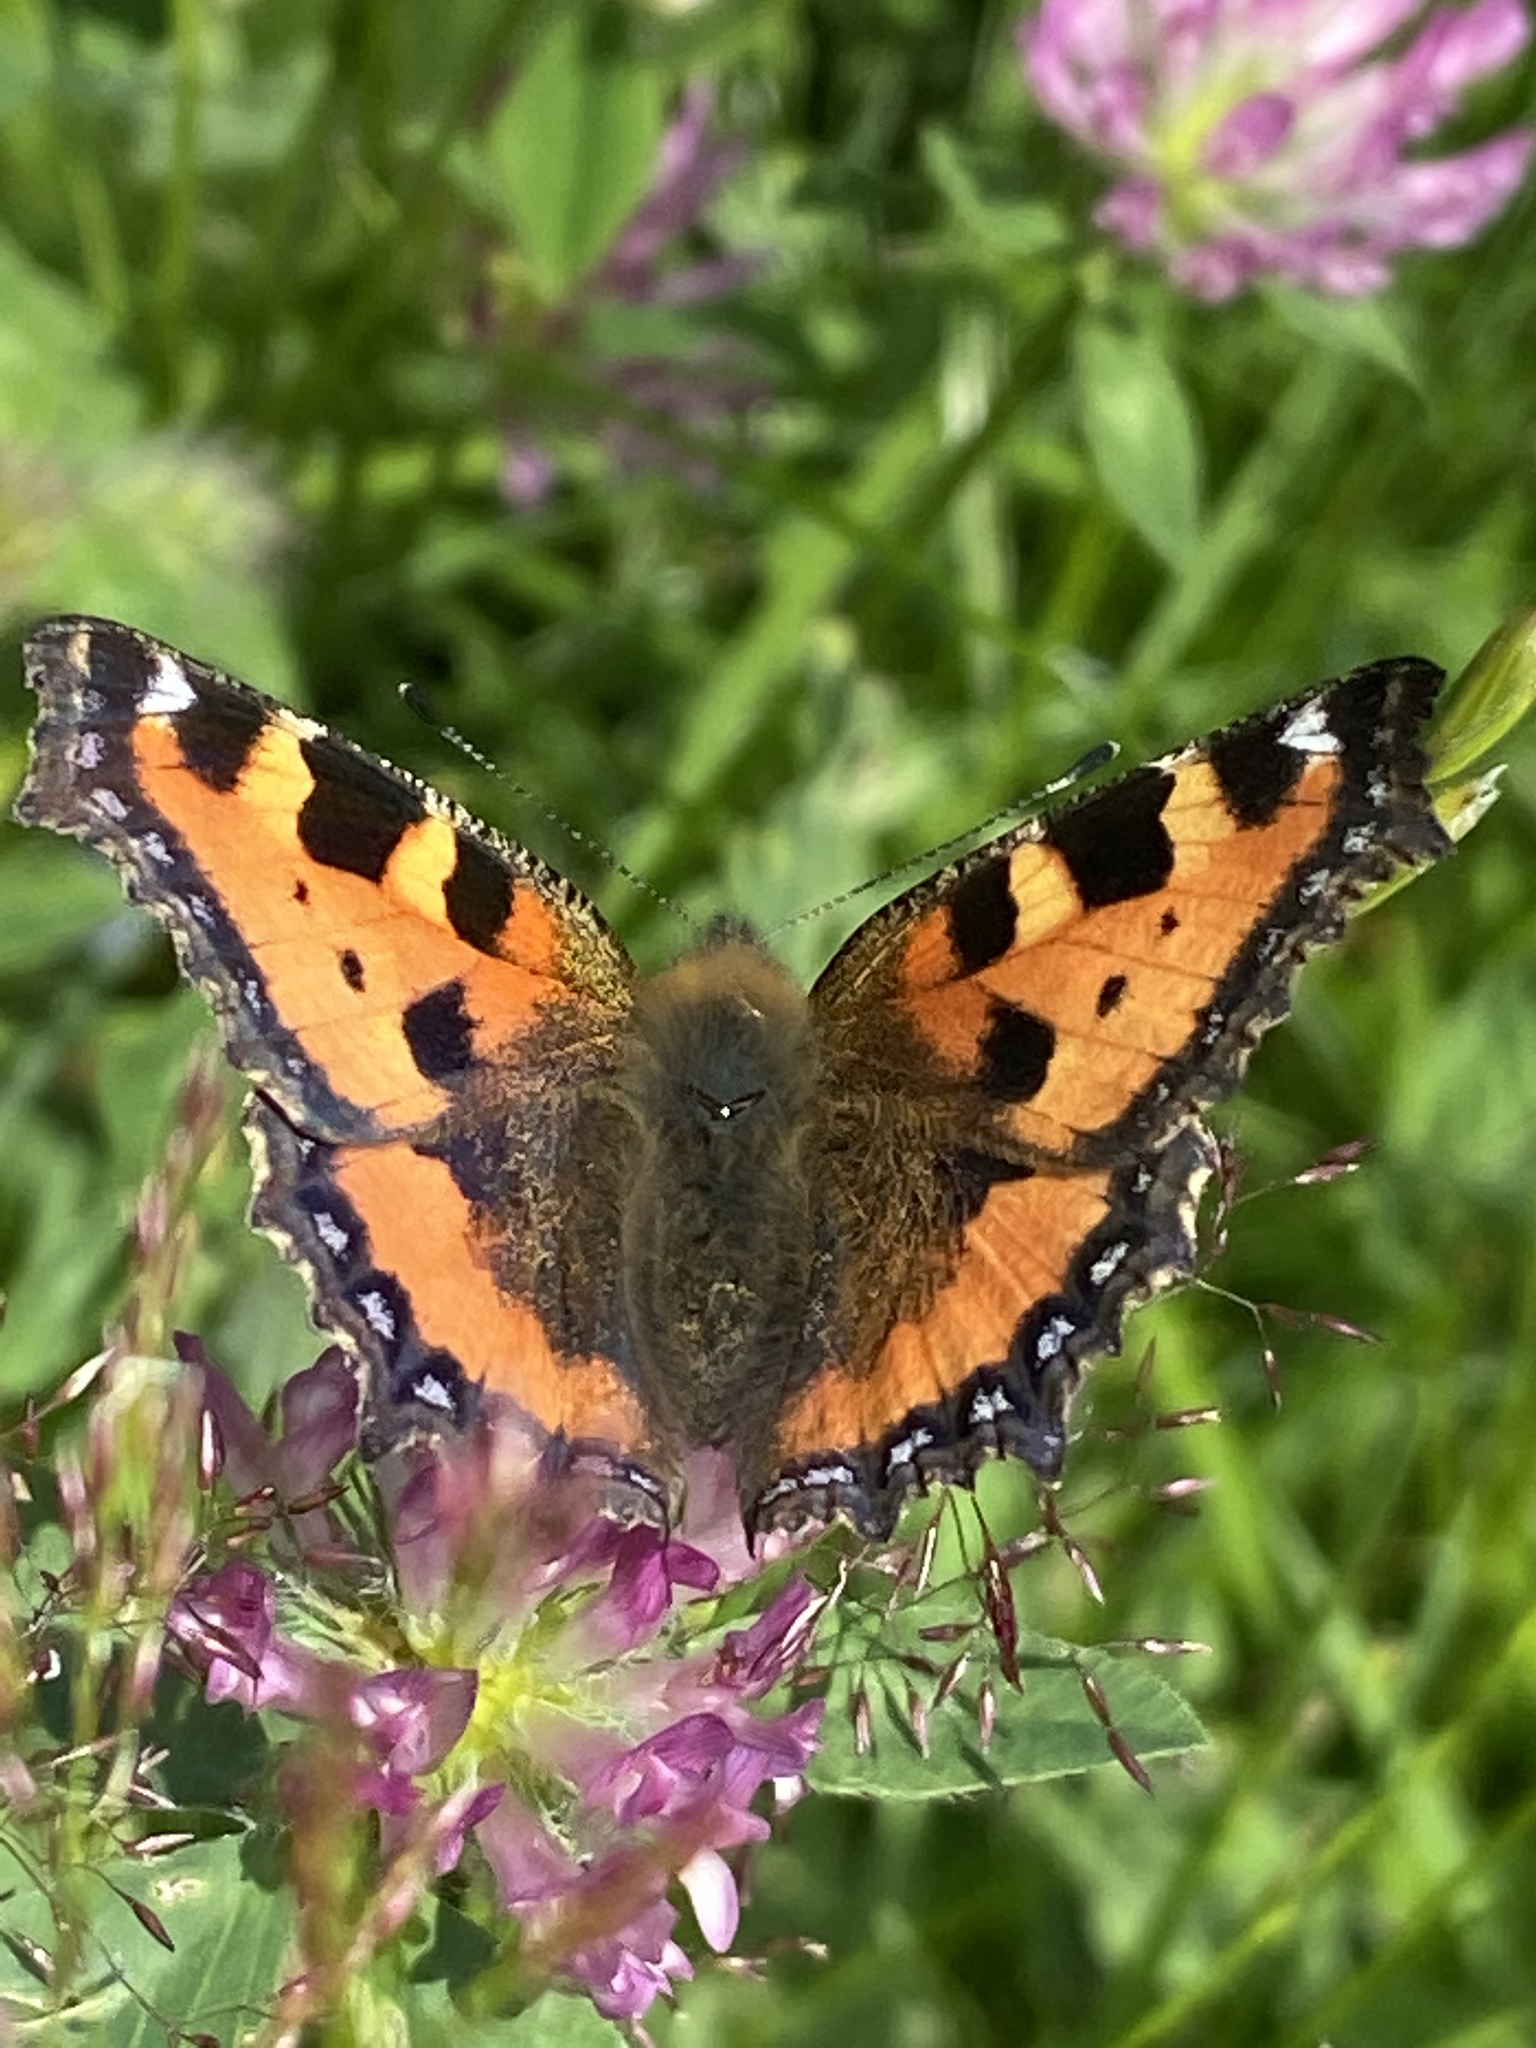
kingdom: Animalia
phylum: Arthropoda
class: Insecta
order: Lepidoptera
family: Nymphalidae
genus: Aglais
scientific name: Aglais urticae
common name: Small tortoiseshell
